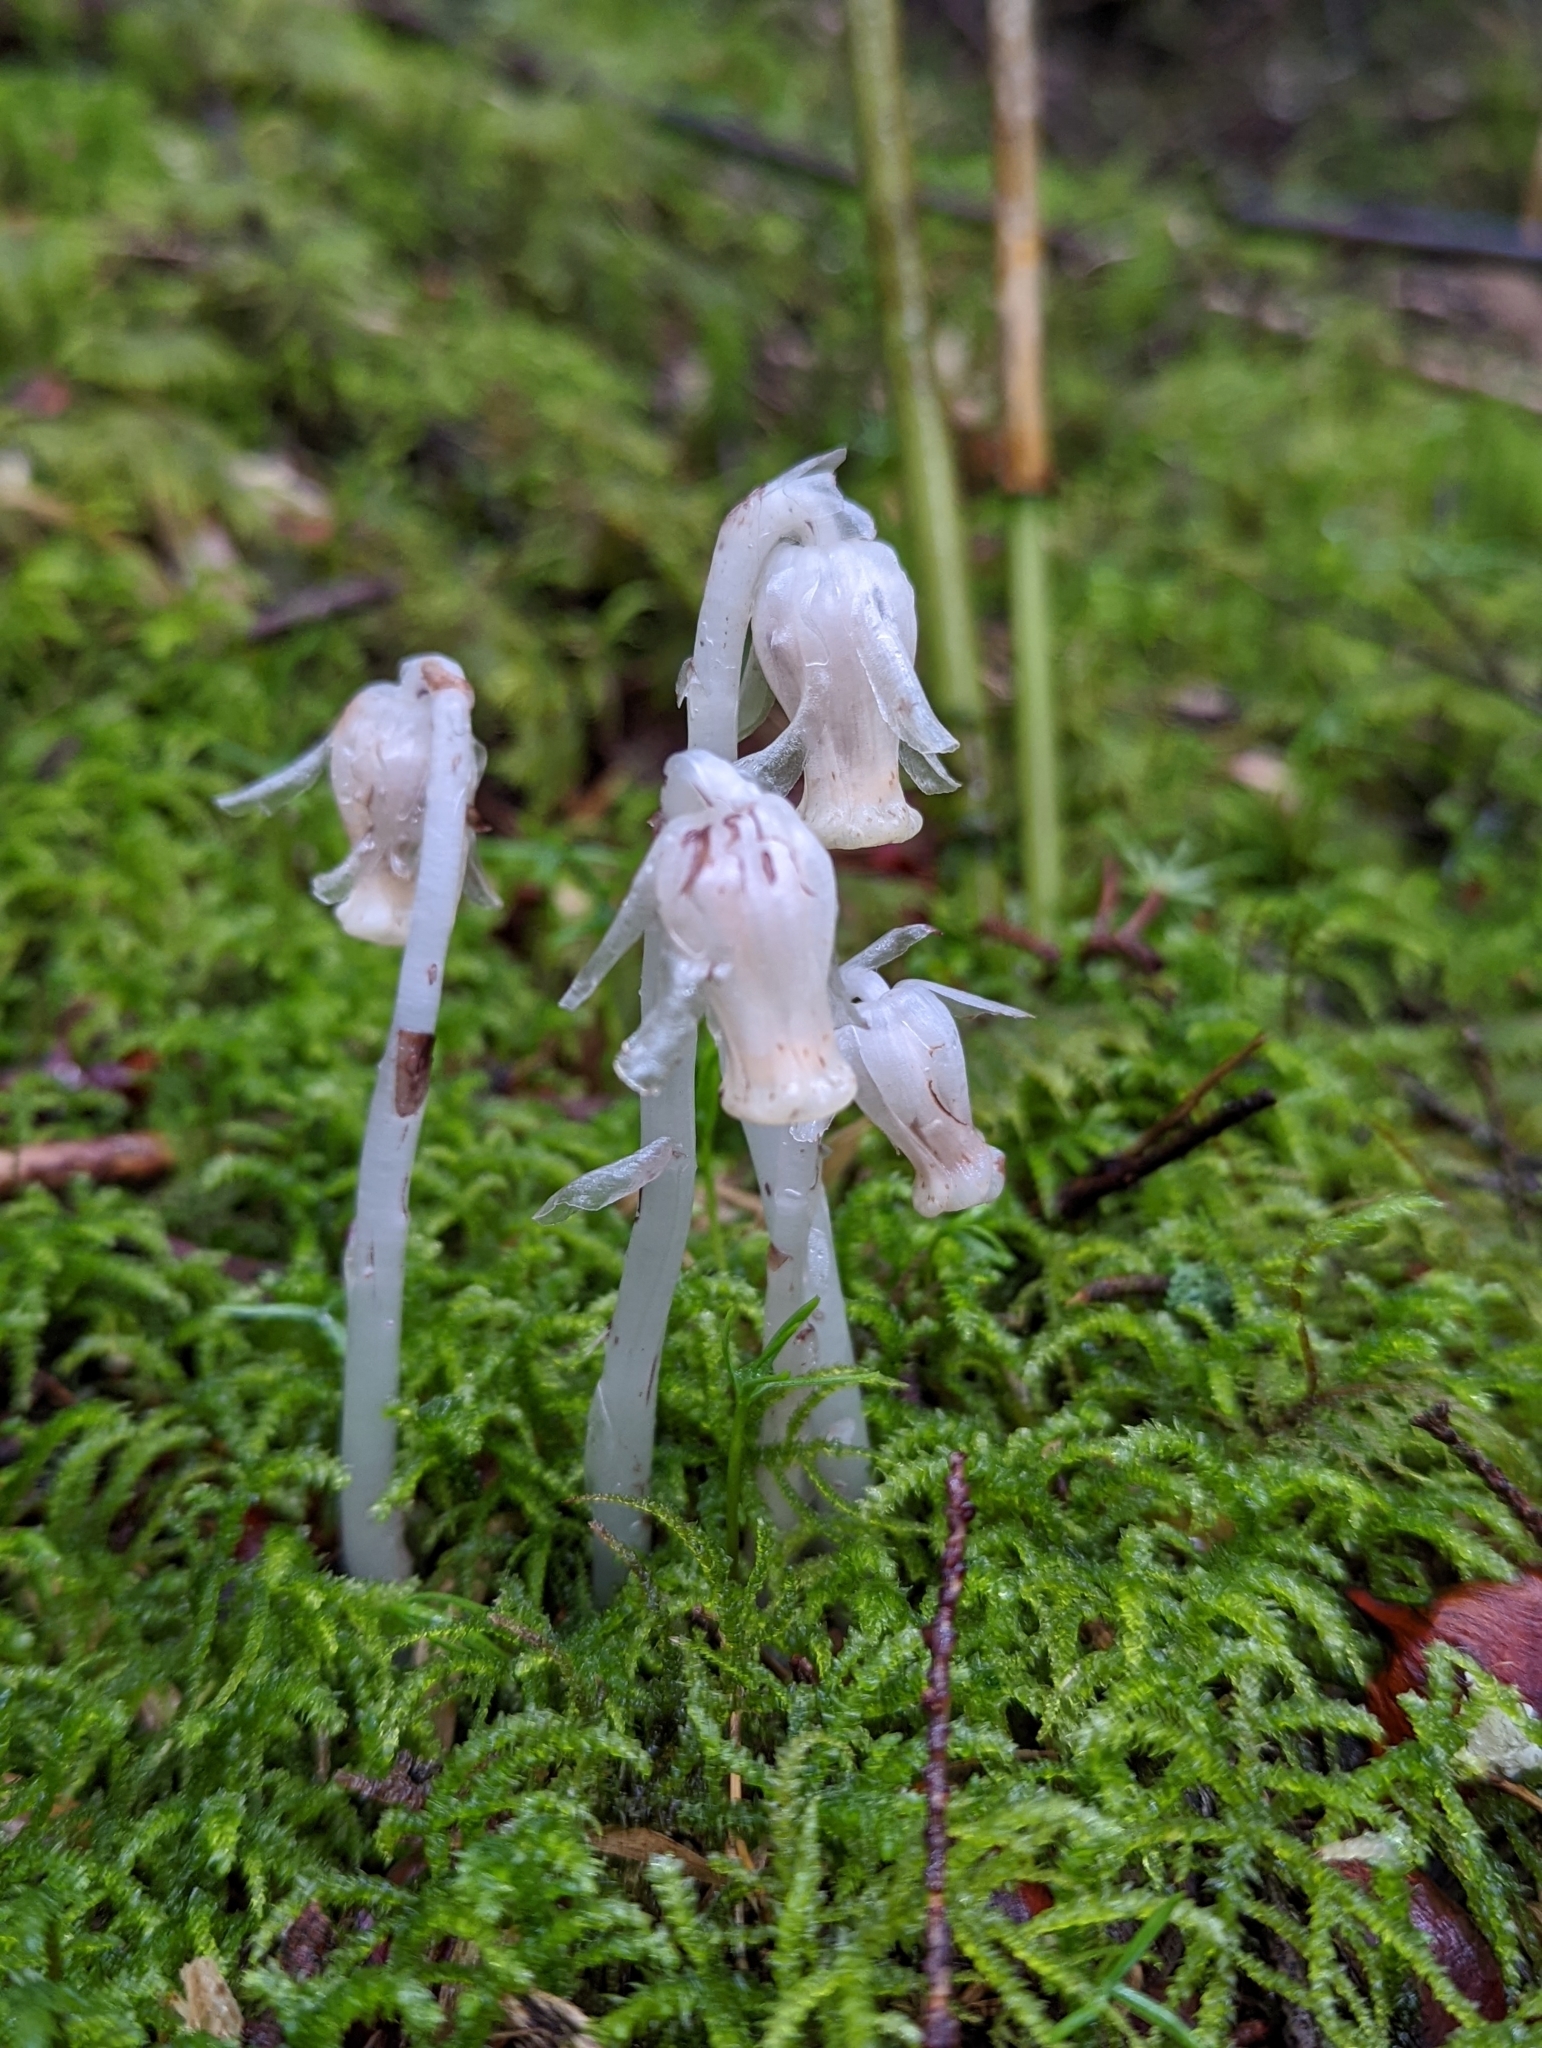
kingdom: Plantae
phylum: Tracheophyta
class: Magnoliopsida
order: Ericales
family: Ericaceae
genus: Monotropastrum
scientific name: Monotropastrum humile
